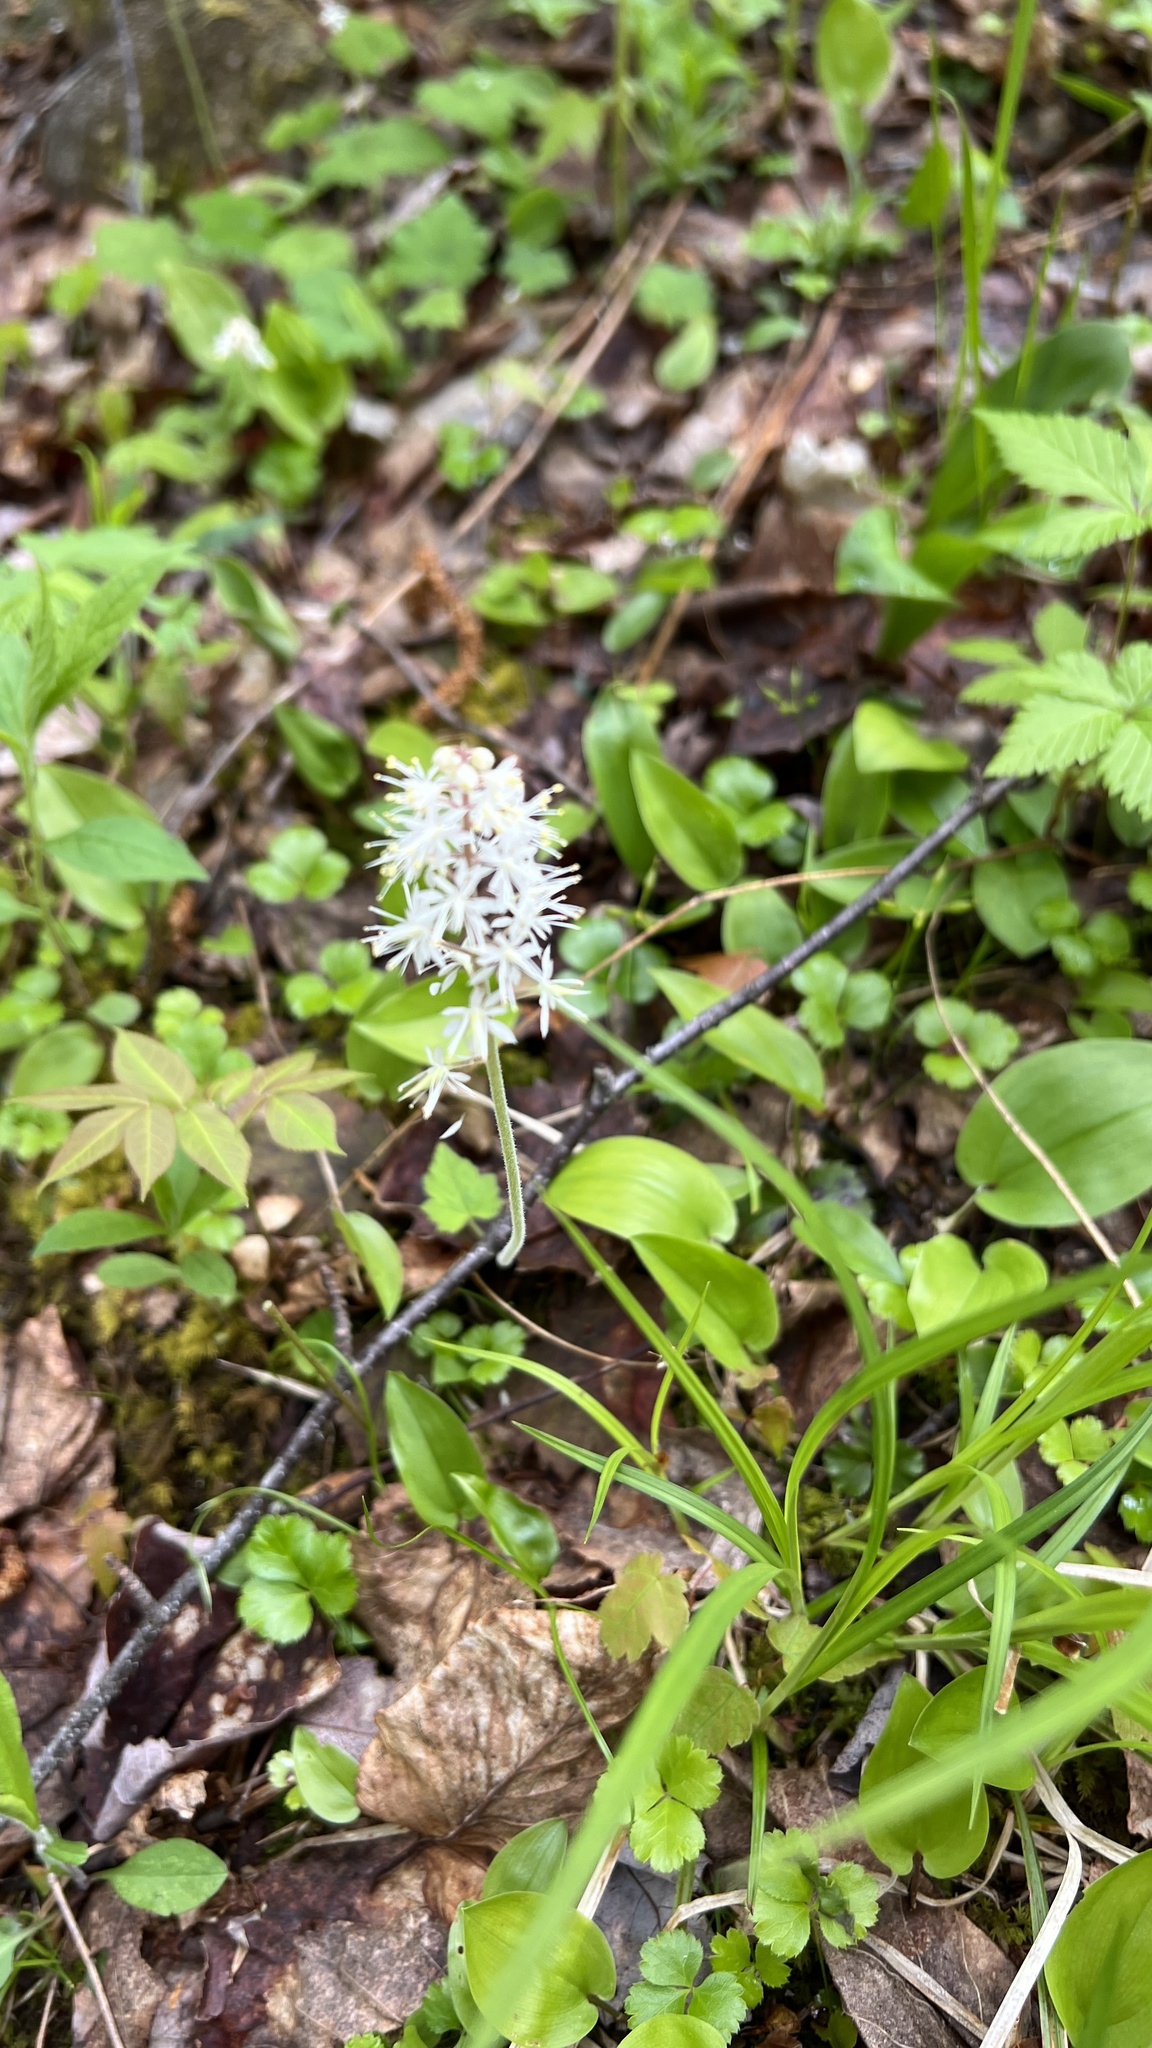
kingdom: Plantae
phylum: Tracheophyta
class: Magnoliopsida
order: Saxifragales
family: Saxifragaceae
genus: Tiarella
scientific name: Tiarella stolonifera
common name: Stoloniferous foamflower
